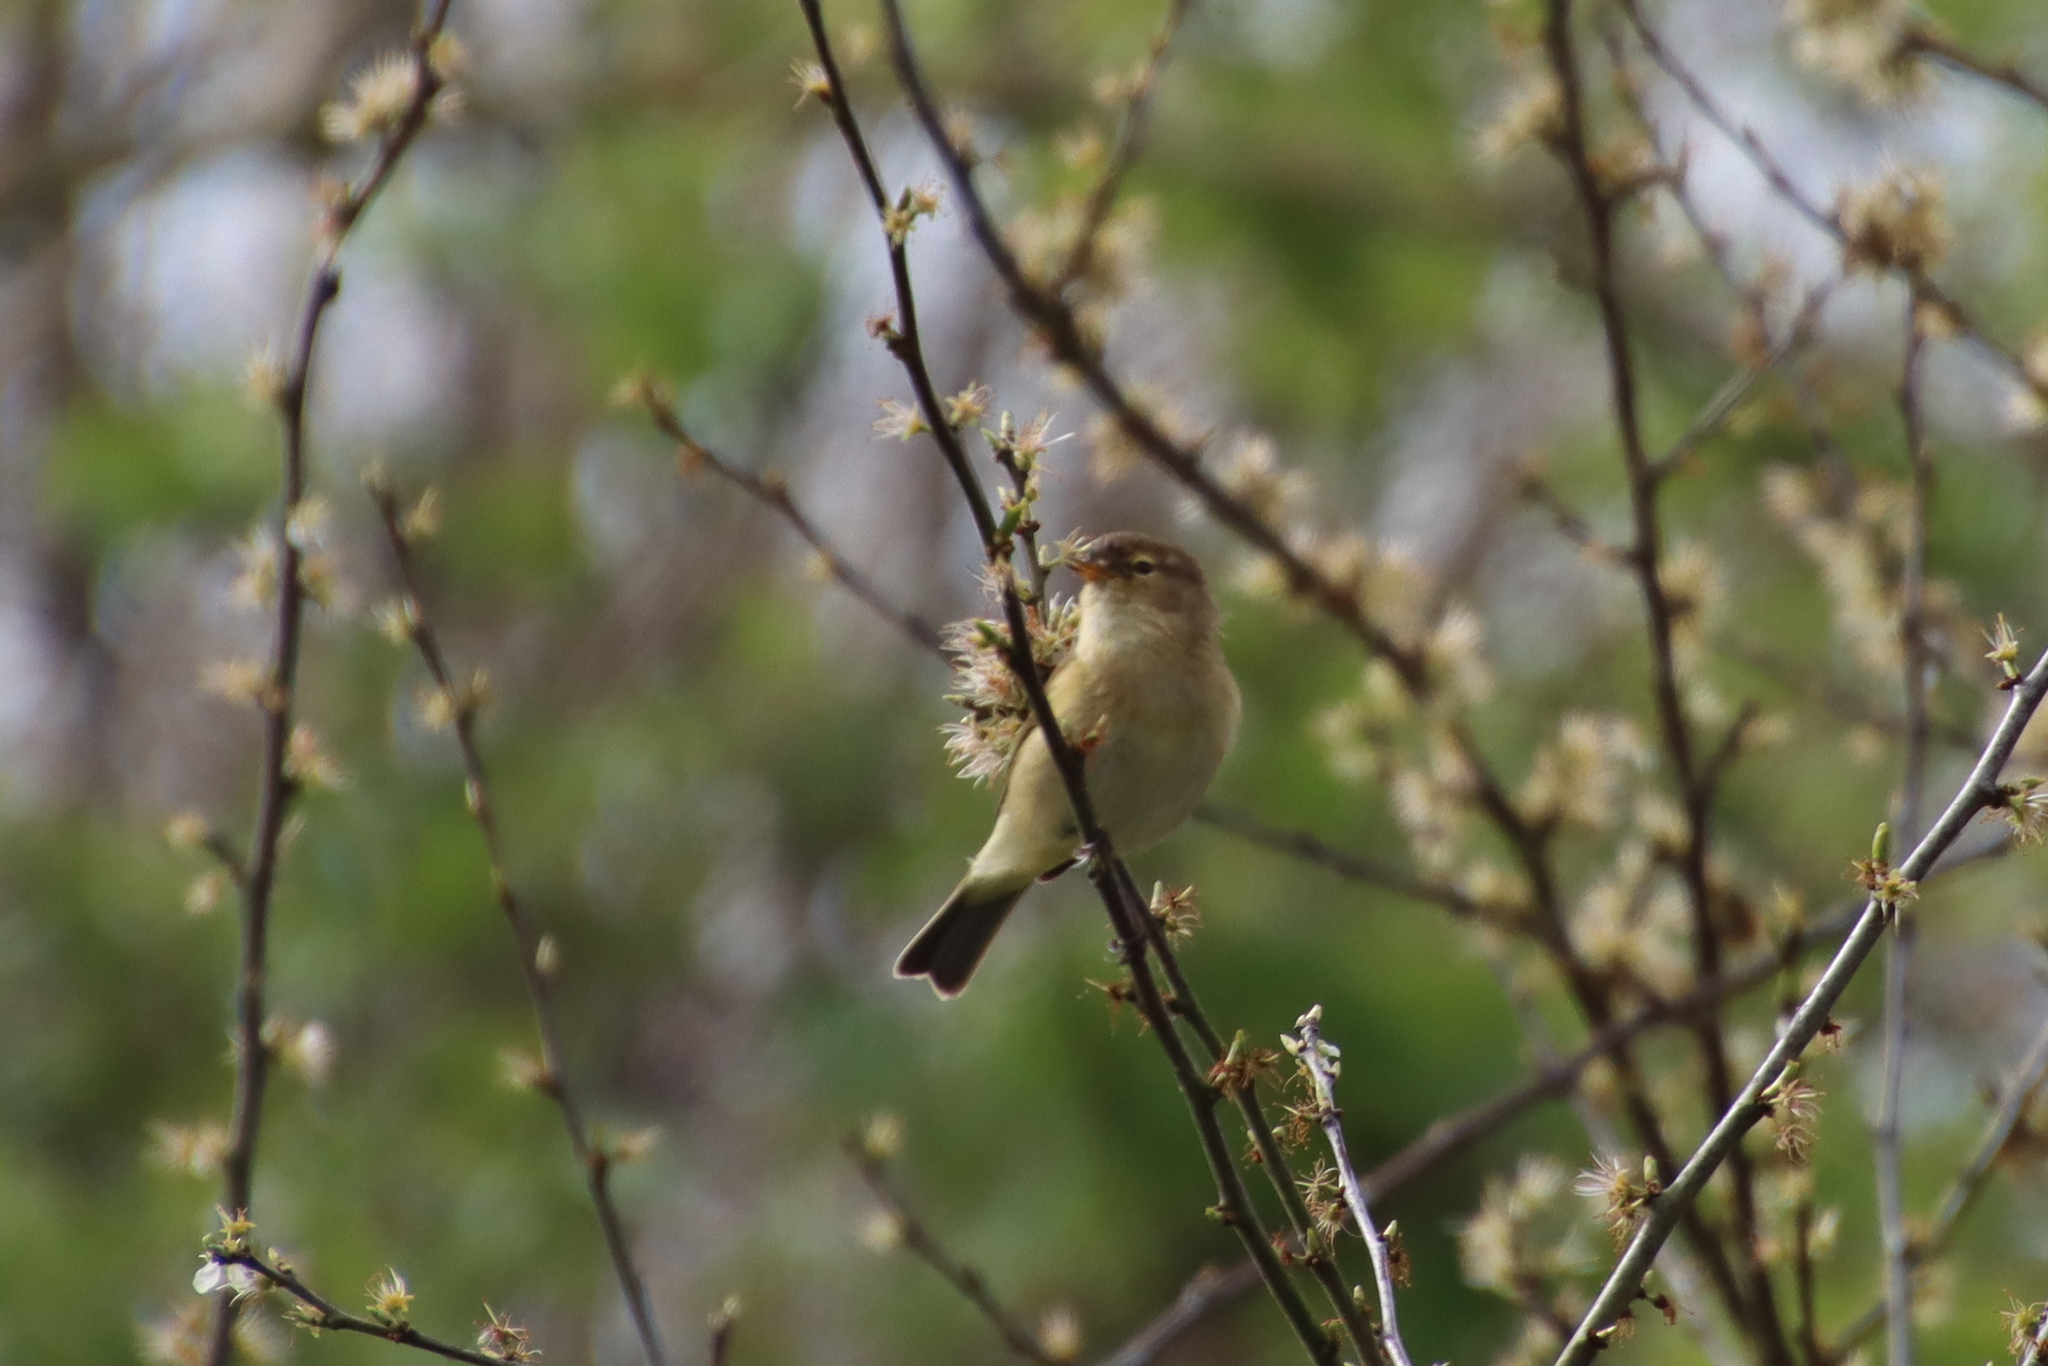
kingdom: Animalia
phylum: Chordata
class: Aves
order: Passeriformes
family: Phylloscopidae
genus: Phylloscopus
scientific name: Phylloscopus collybita
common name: Common chiffchaff
